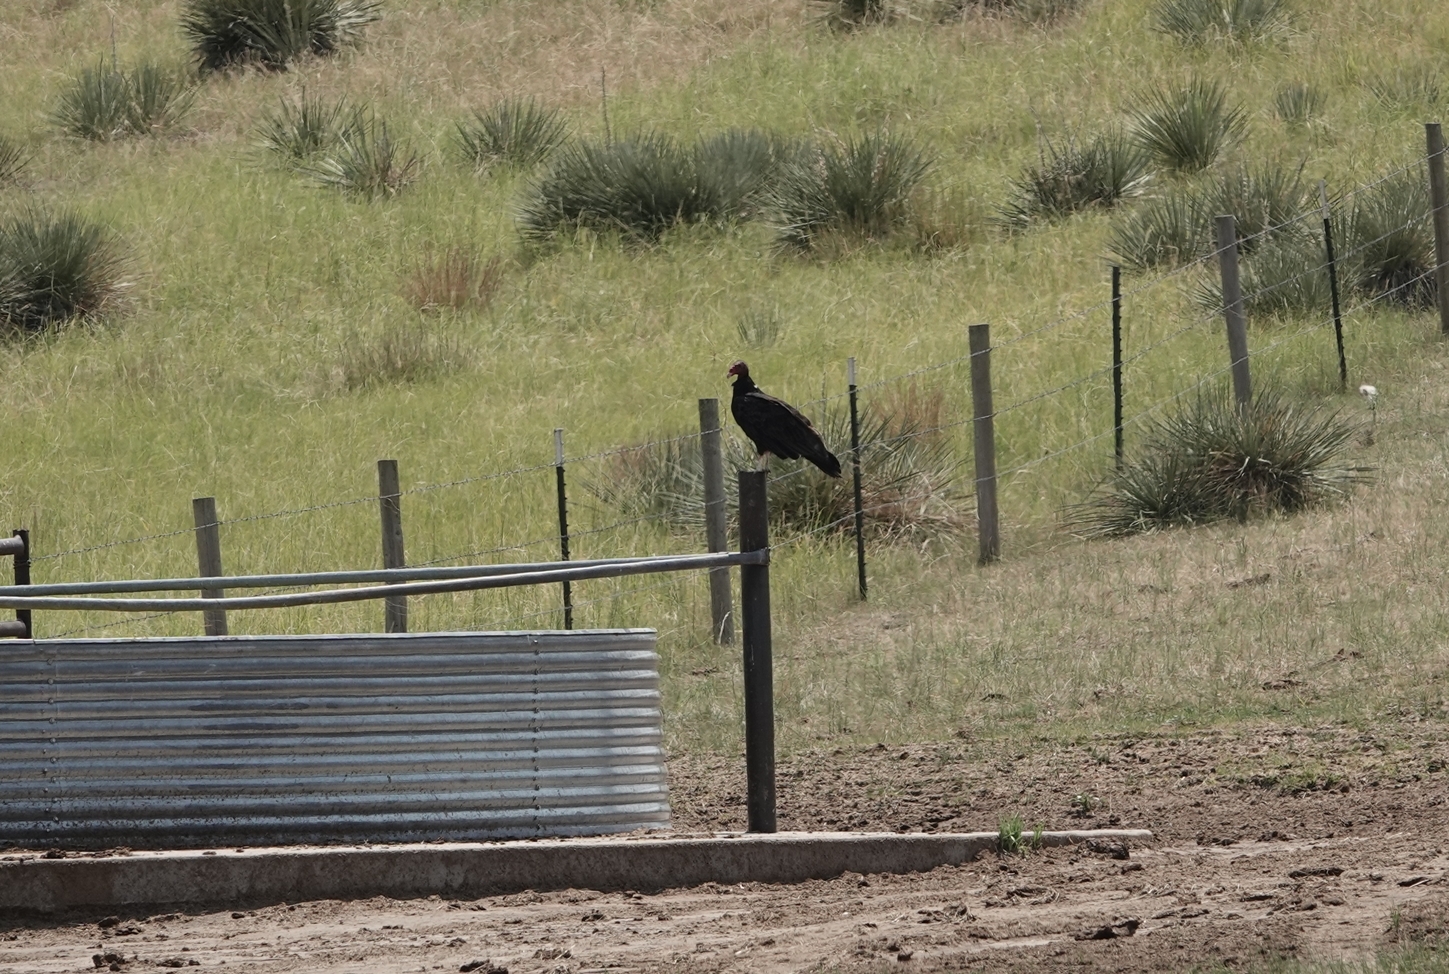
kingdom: Animalia
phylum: Chordata
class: Aves
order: Accipitriformes
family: Cathartidae
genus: Cathartes
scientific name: Cathartes aura
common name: Turkey vulture
